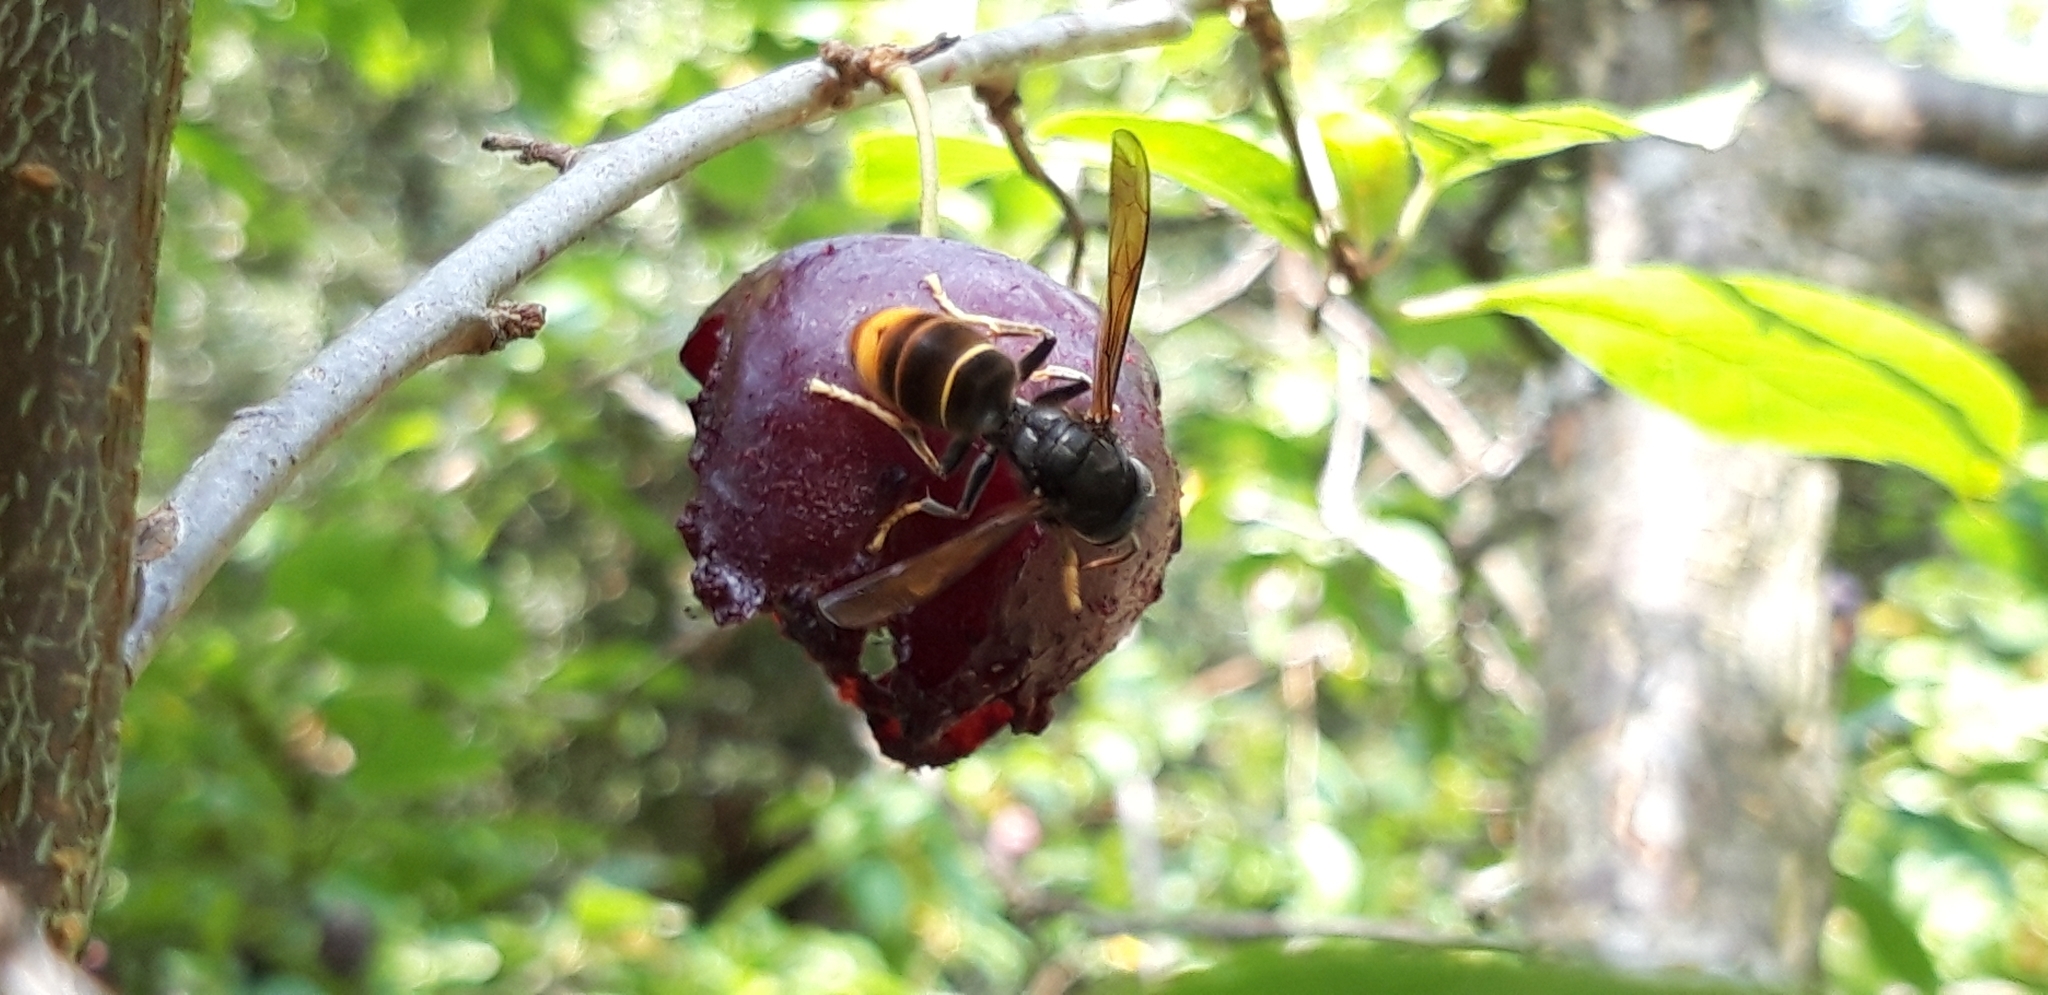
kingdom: Animalia
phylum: Arthropoda
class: Insecta
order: Hymenoptera
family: Vespidae
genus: Vespa
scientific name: Vespa velutina
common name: Asian hornet
